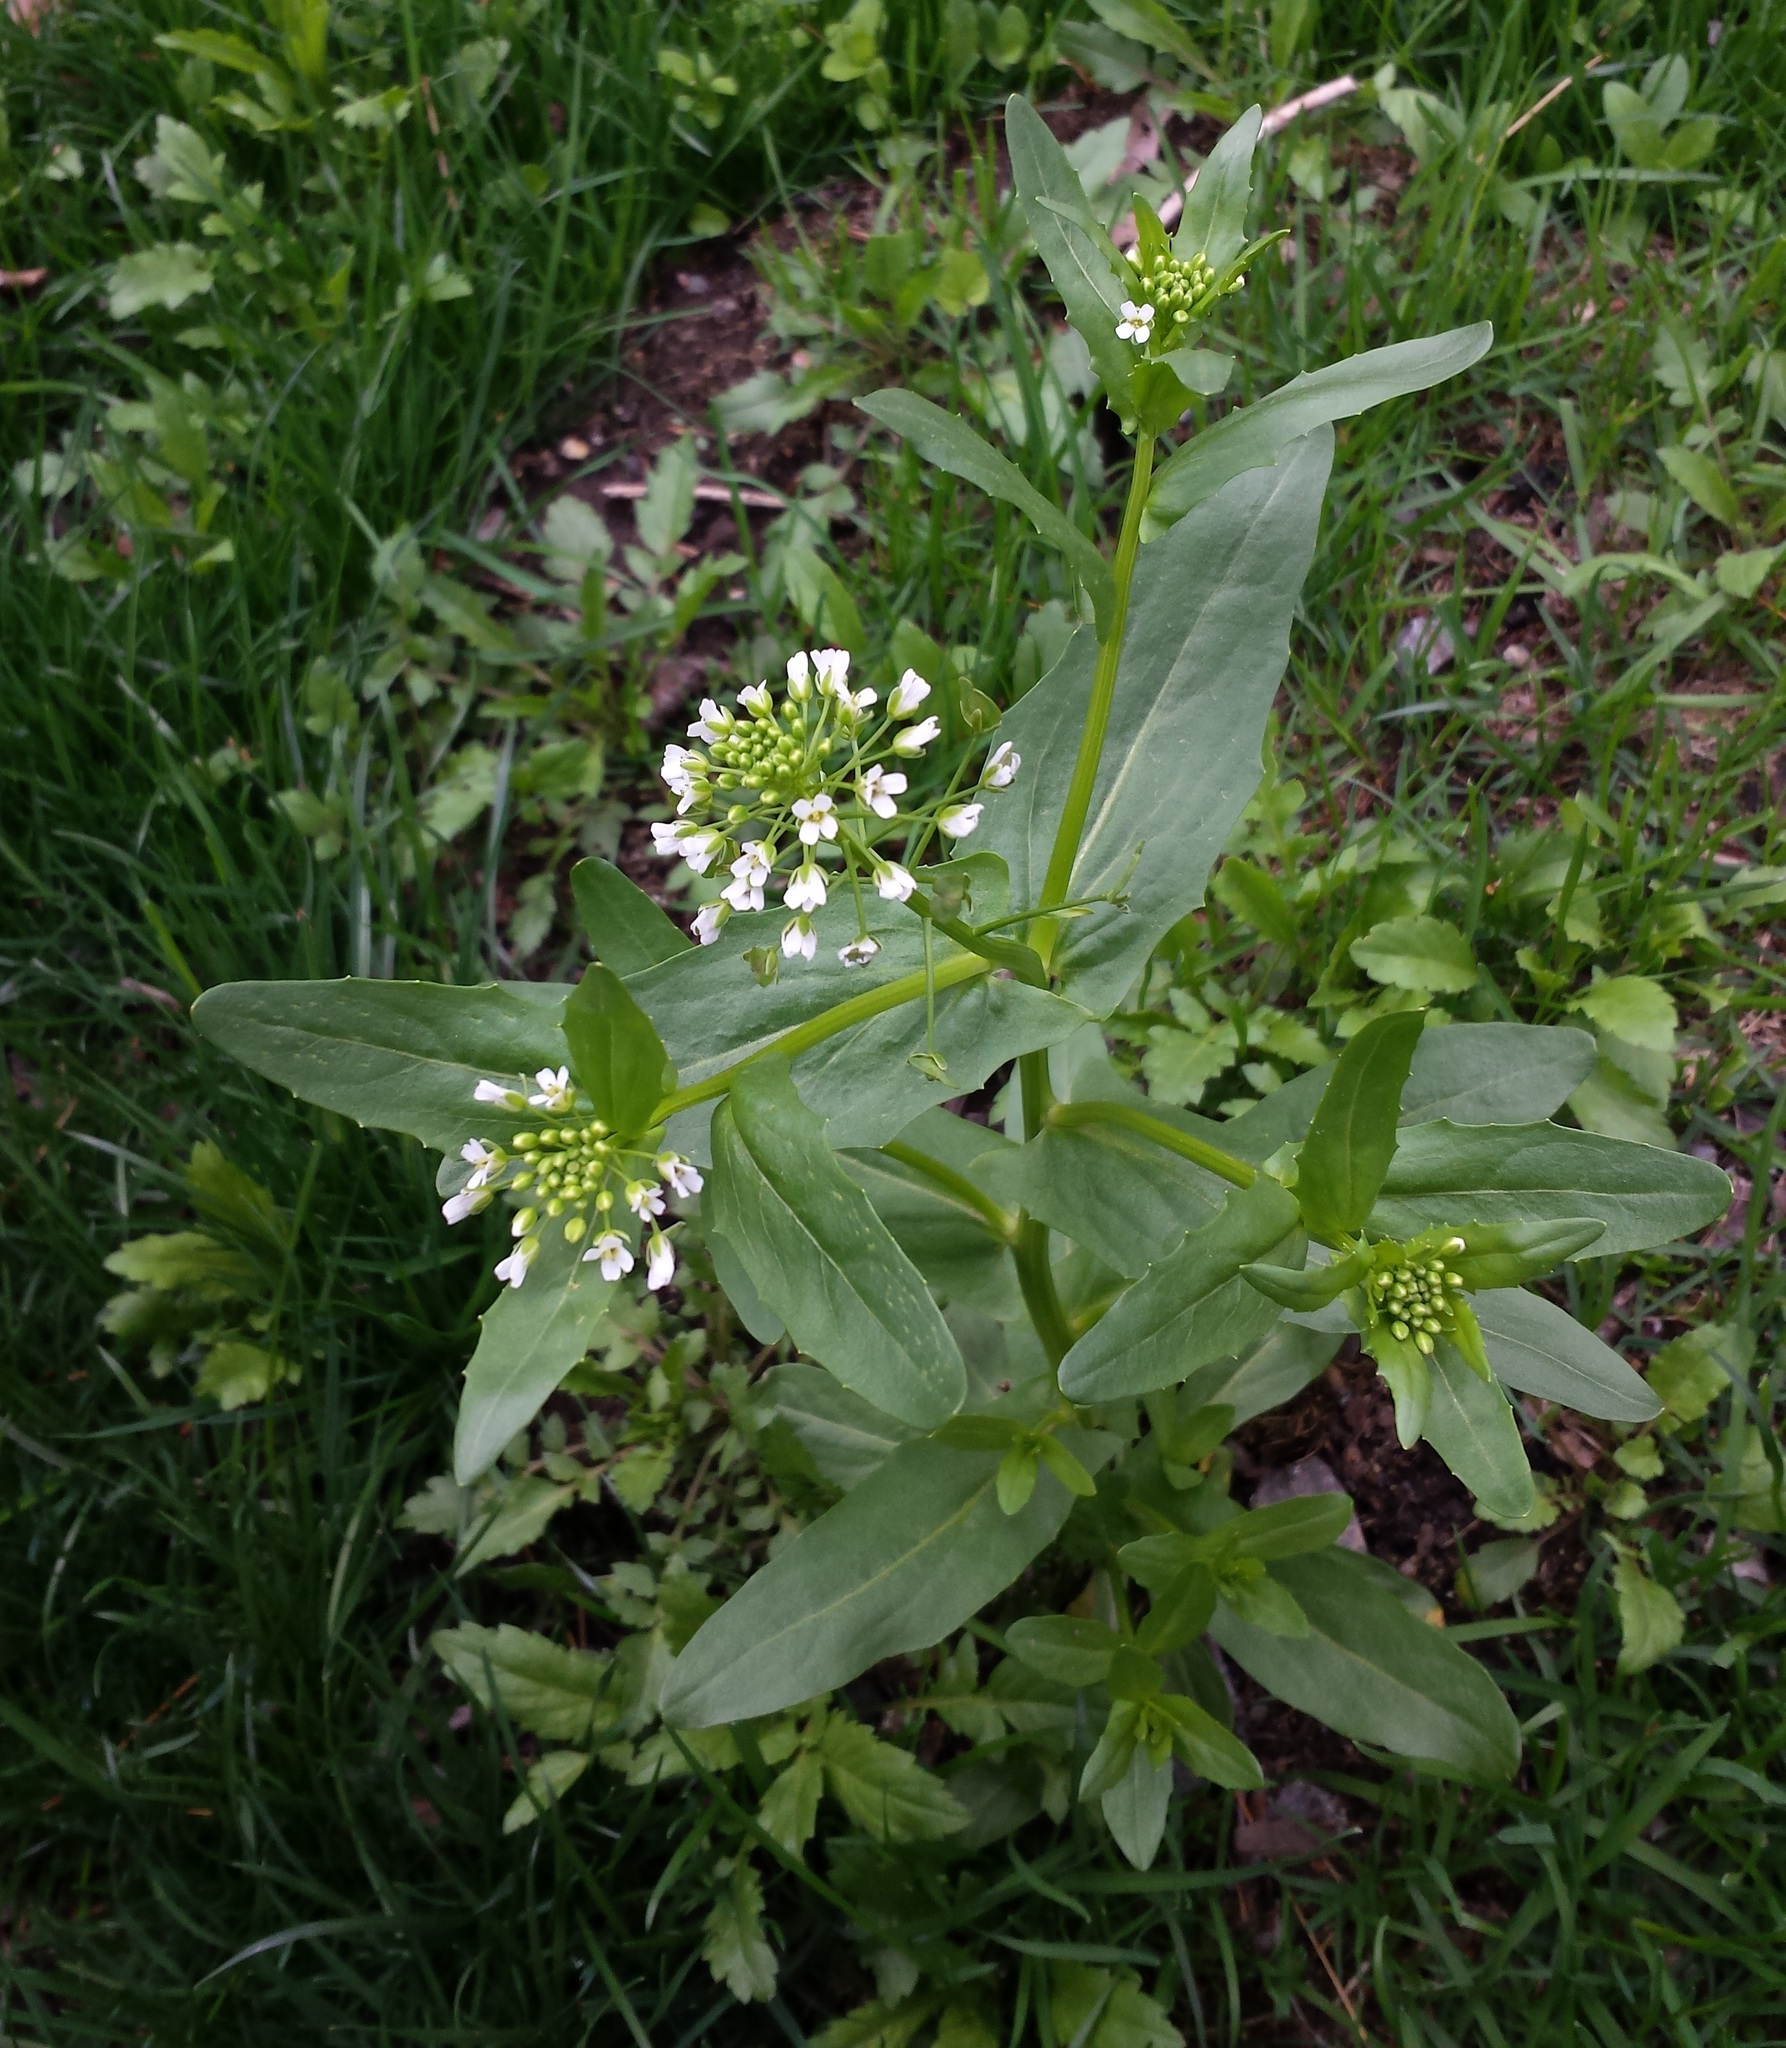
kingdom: Plantae
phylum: Tracheophyta
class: Magnoliopsida
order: Brassicales
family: Brassicaceae
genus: Thlaspi
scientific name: Thlaspi arvense
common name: Field pennycress
